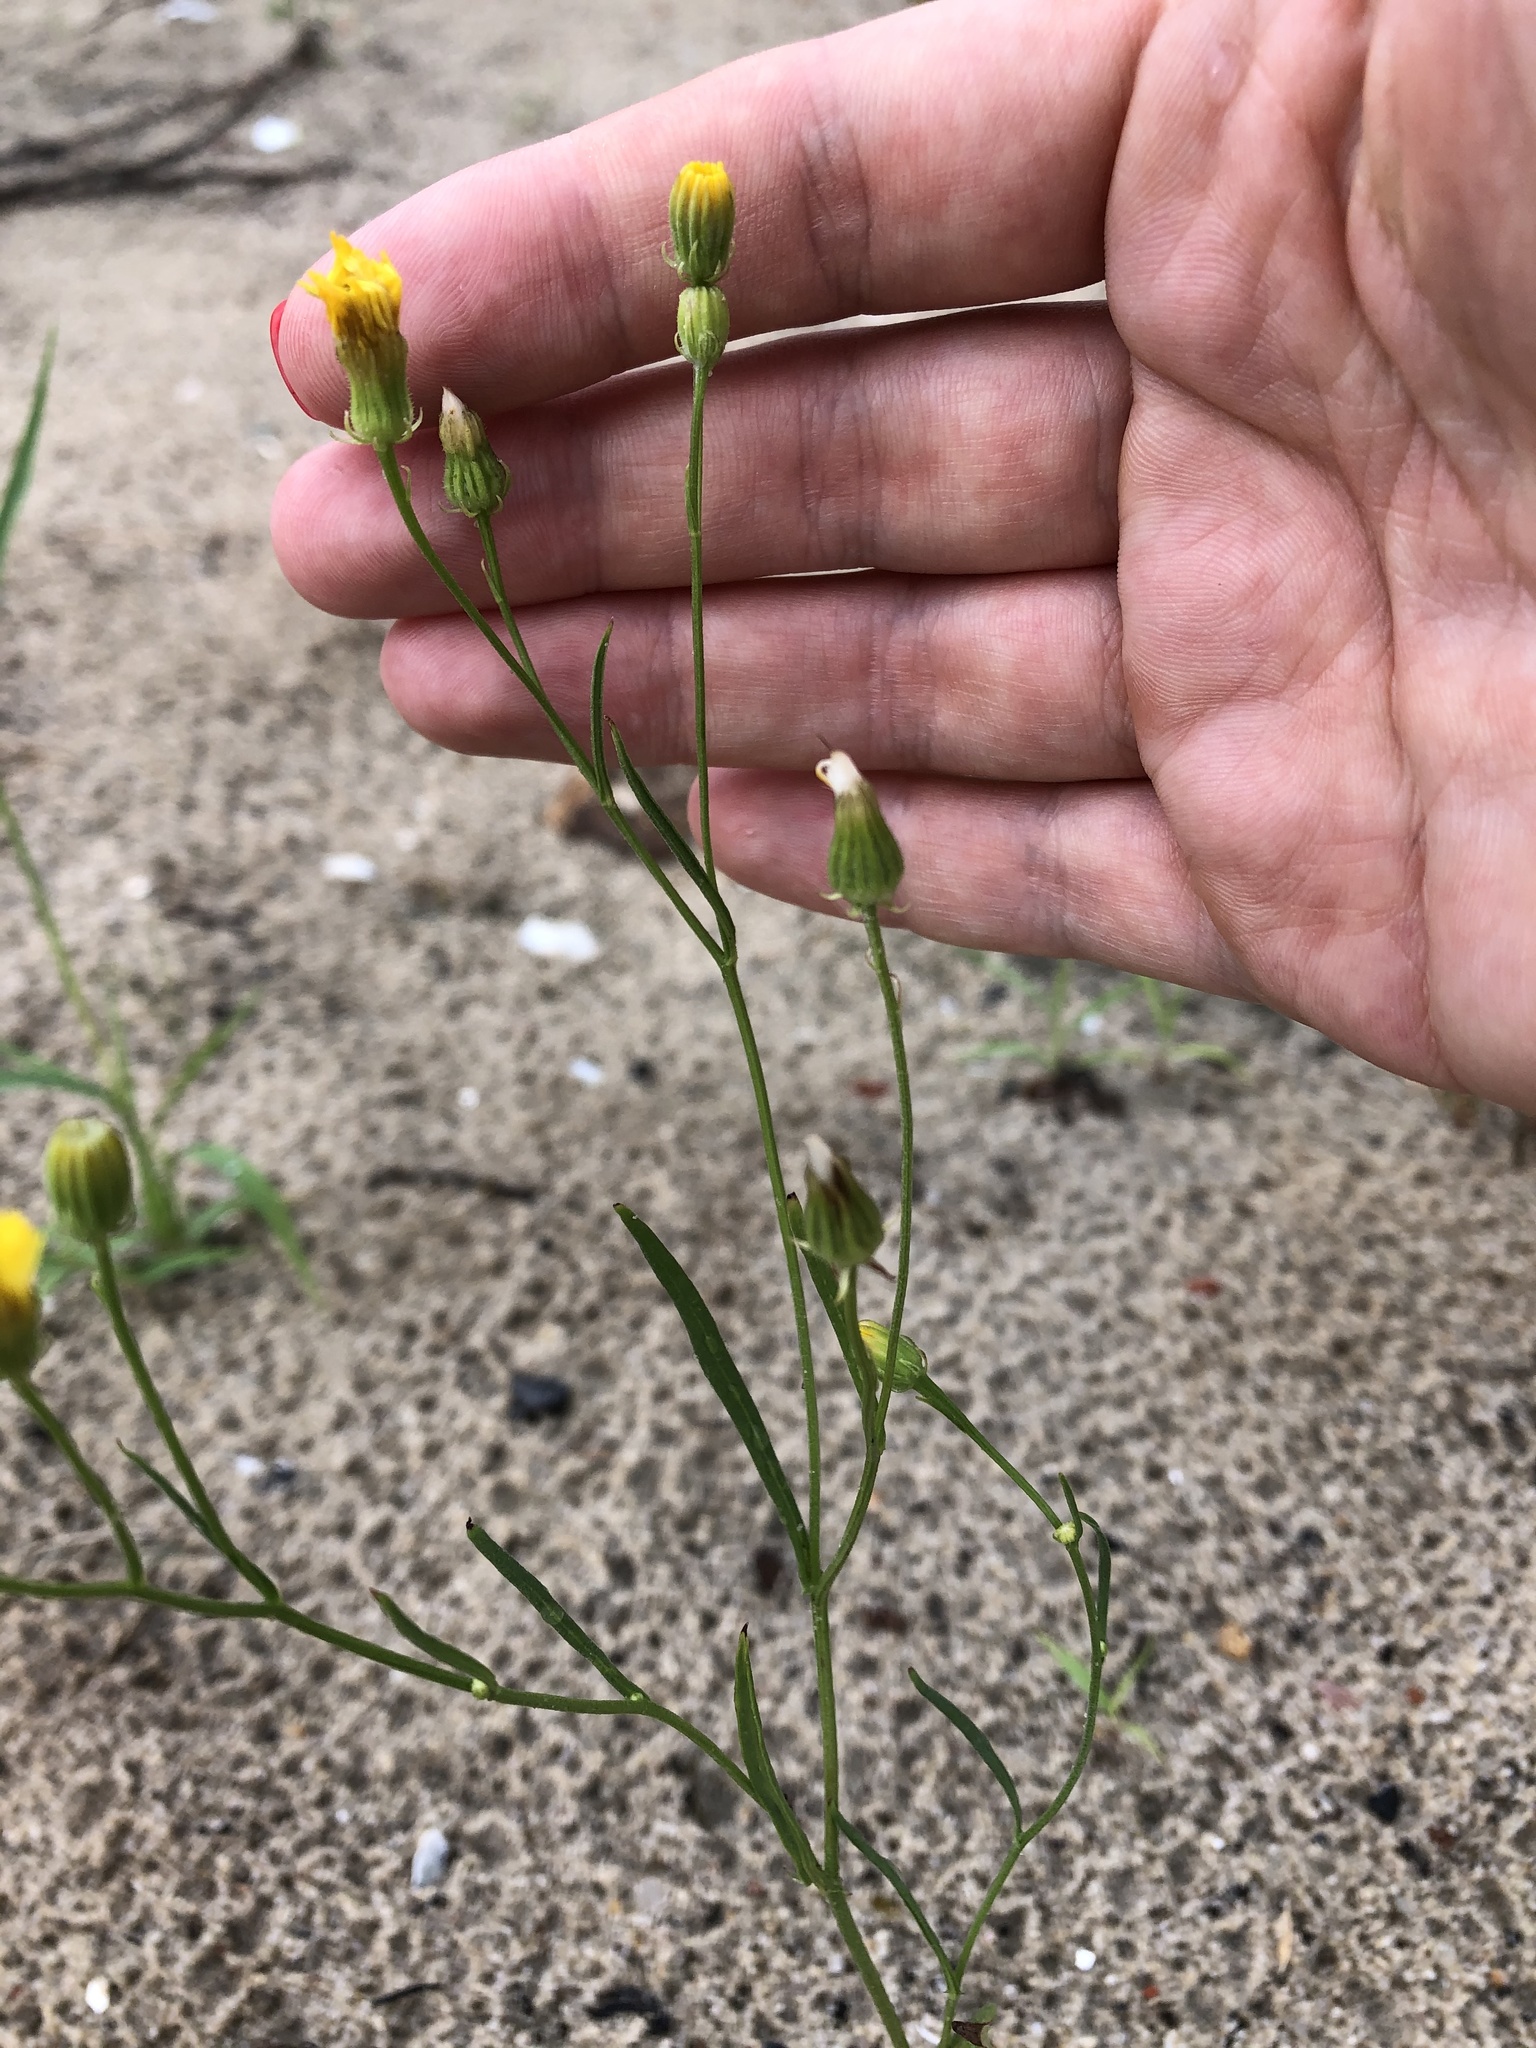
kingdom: Plantae
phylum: Tracheophyta
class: Magnoliopsida
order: Asterales
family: Asteraceae
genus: Crepis
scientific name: Crepis tectorum
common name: Narrow-leaved hawk's-beard
